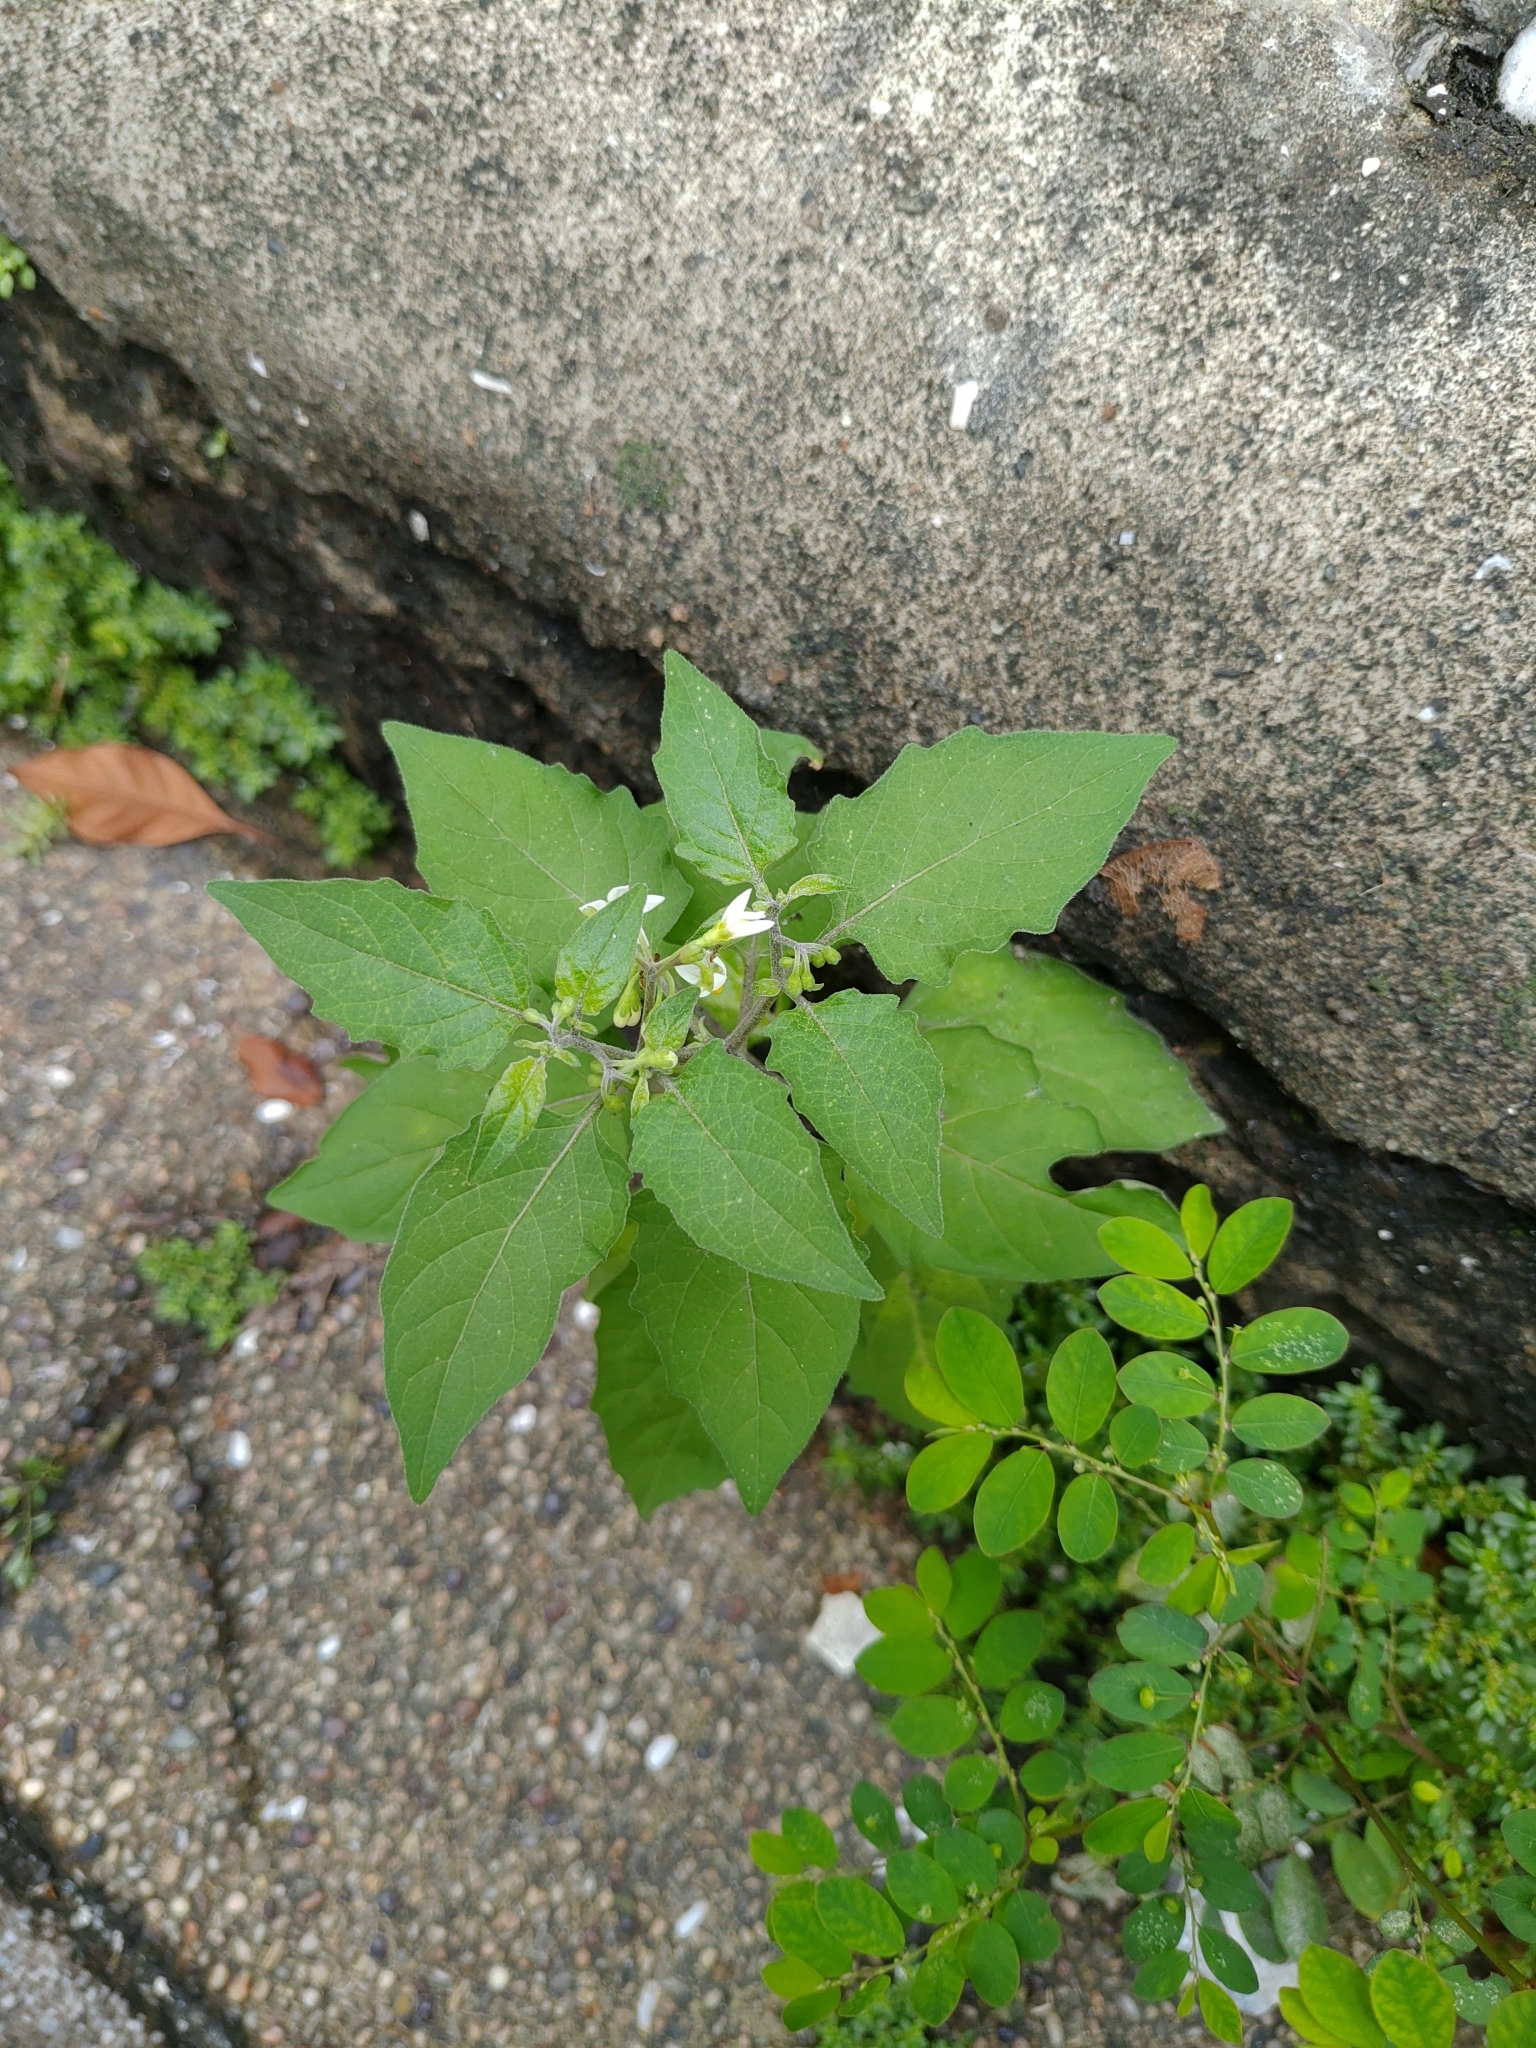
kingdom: Plantae
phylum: Tracheophyta
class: Magnoliopsida
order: Solanales
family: Solanaceae
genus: Solanum
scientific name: Solanum
